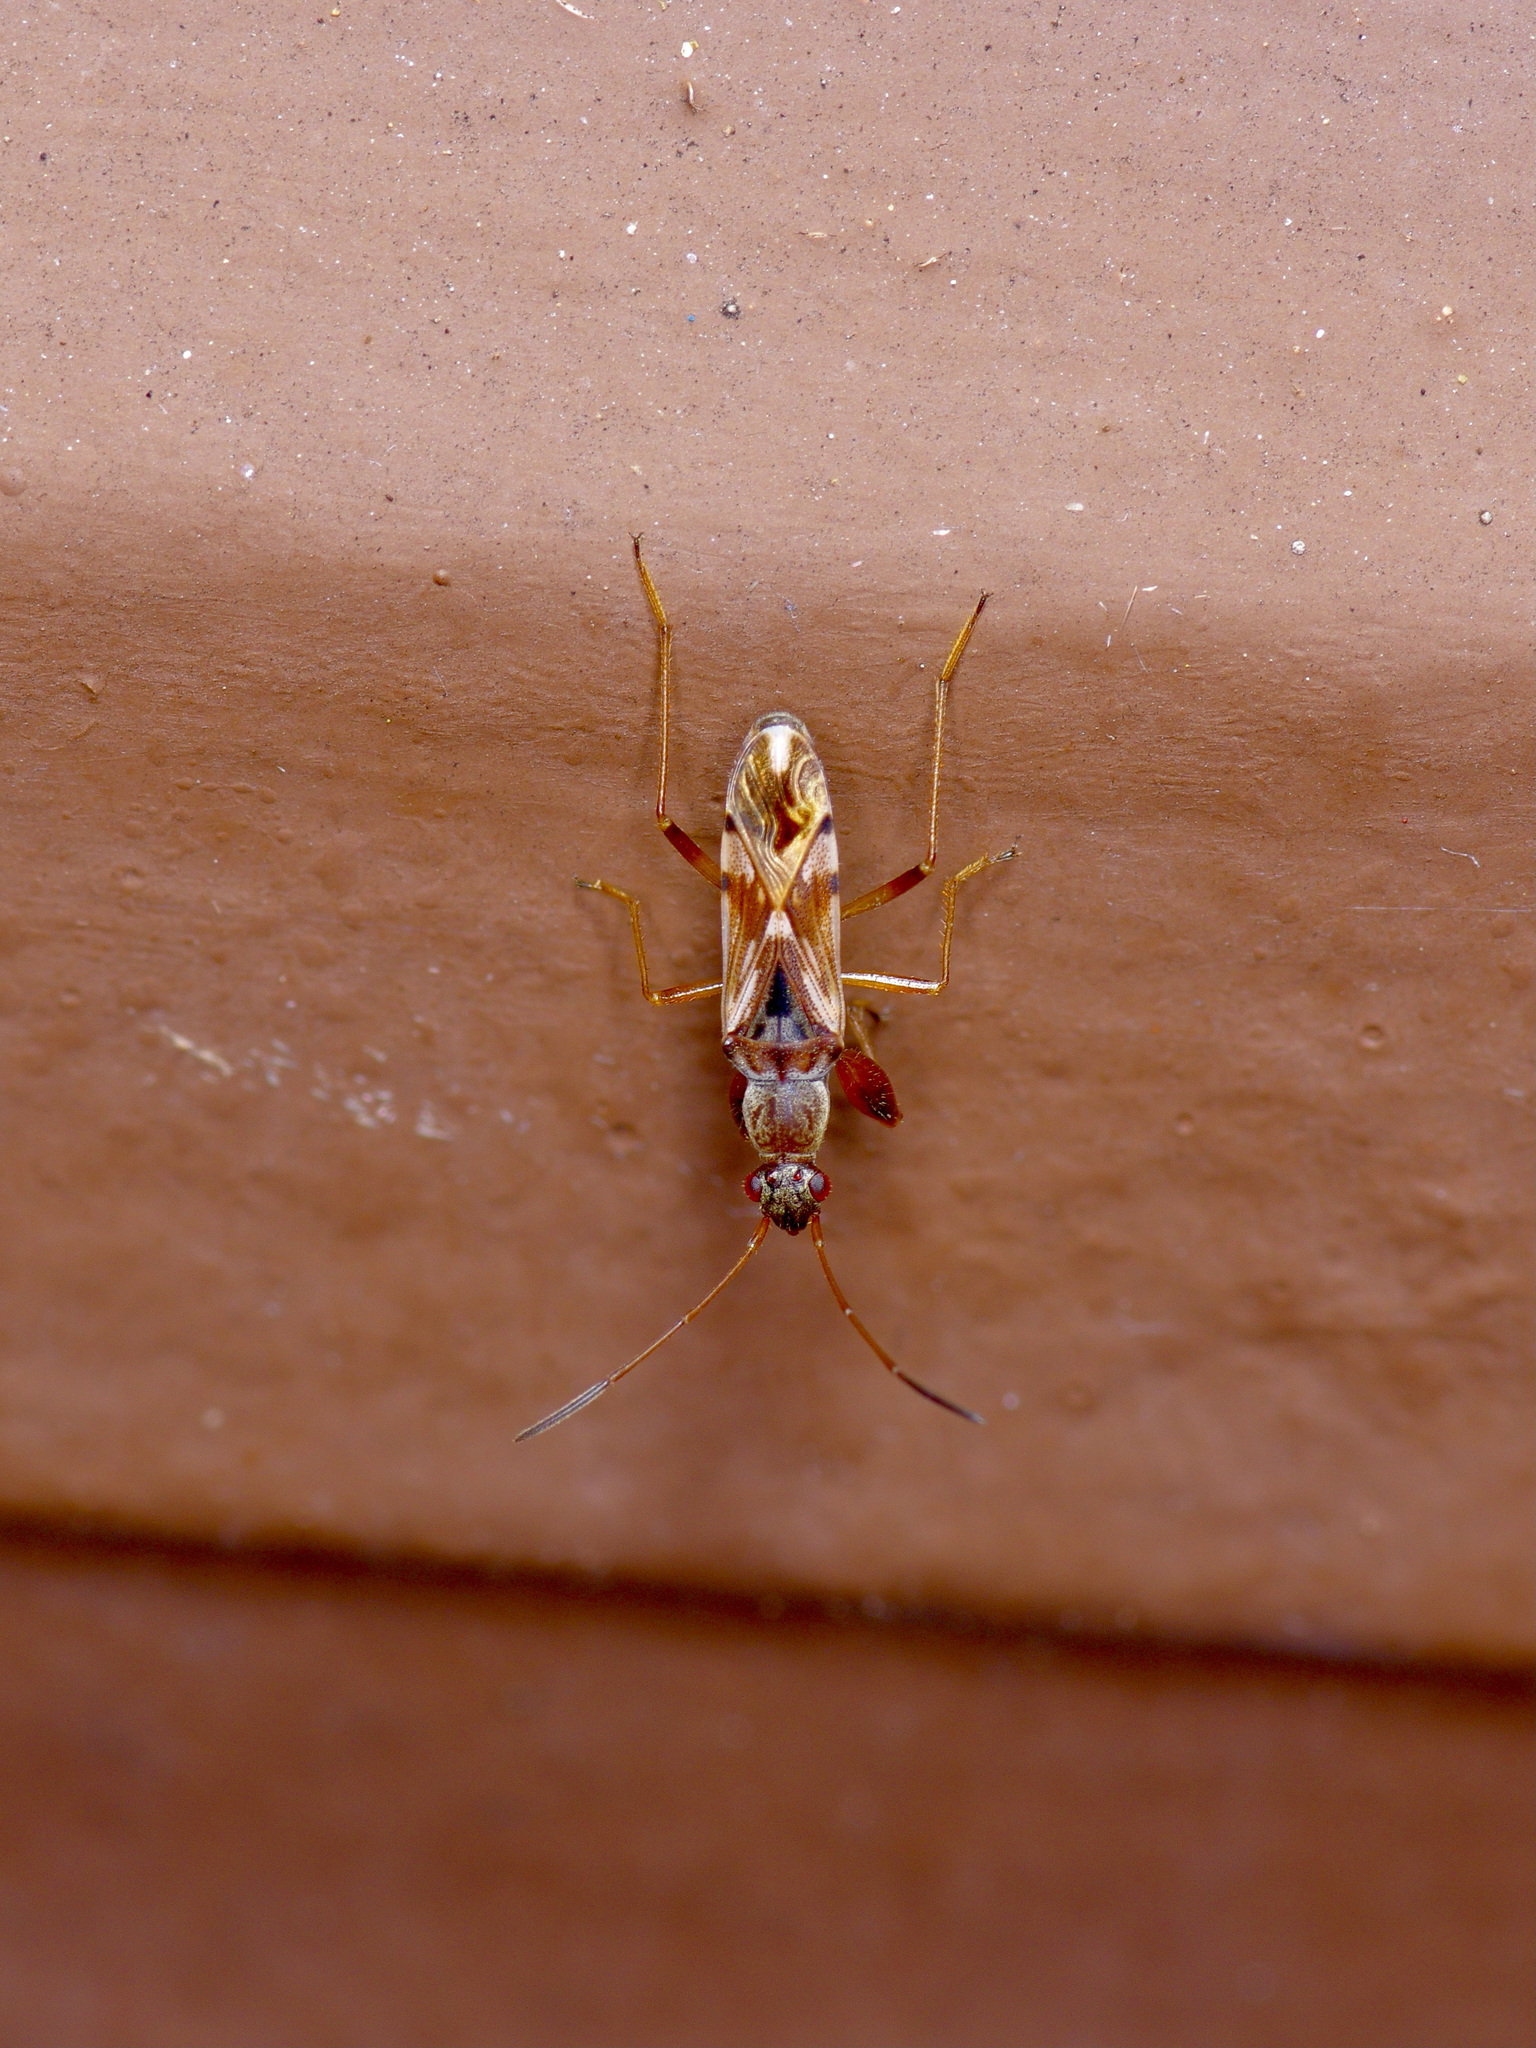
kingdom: Animalia
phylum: Arthropoda
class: Insecta
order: Hemiptera
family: Rhyparochromidae
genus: Neopamera
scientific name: Neopamera bilobata
